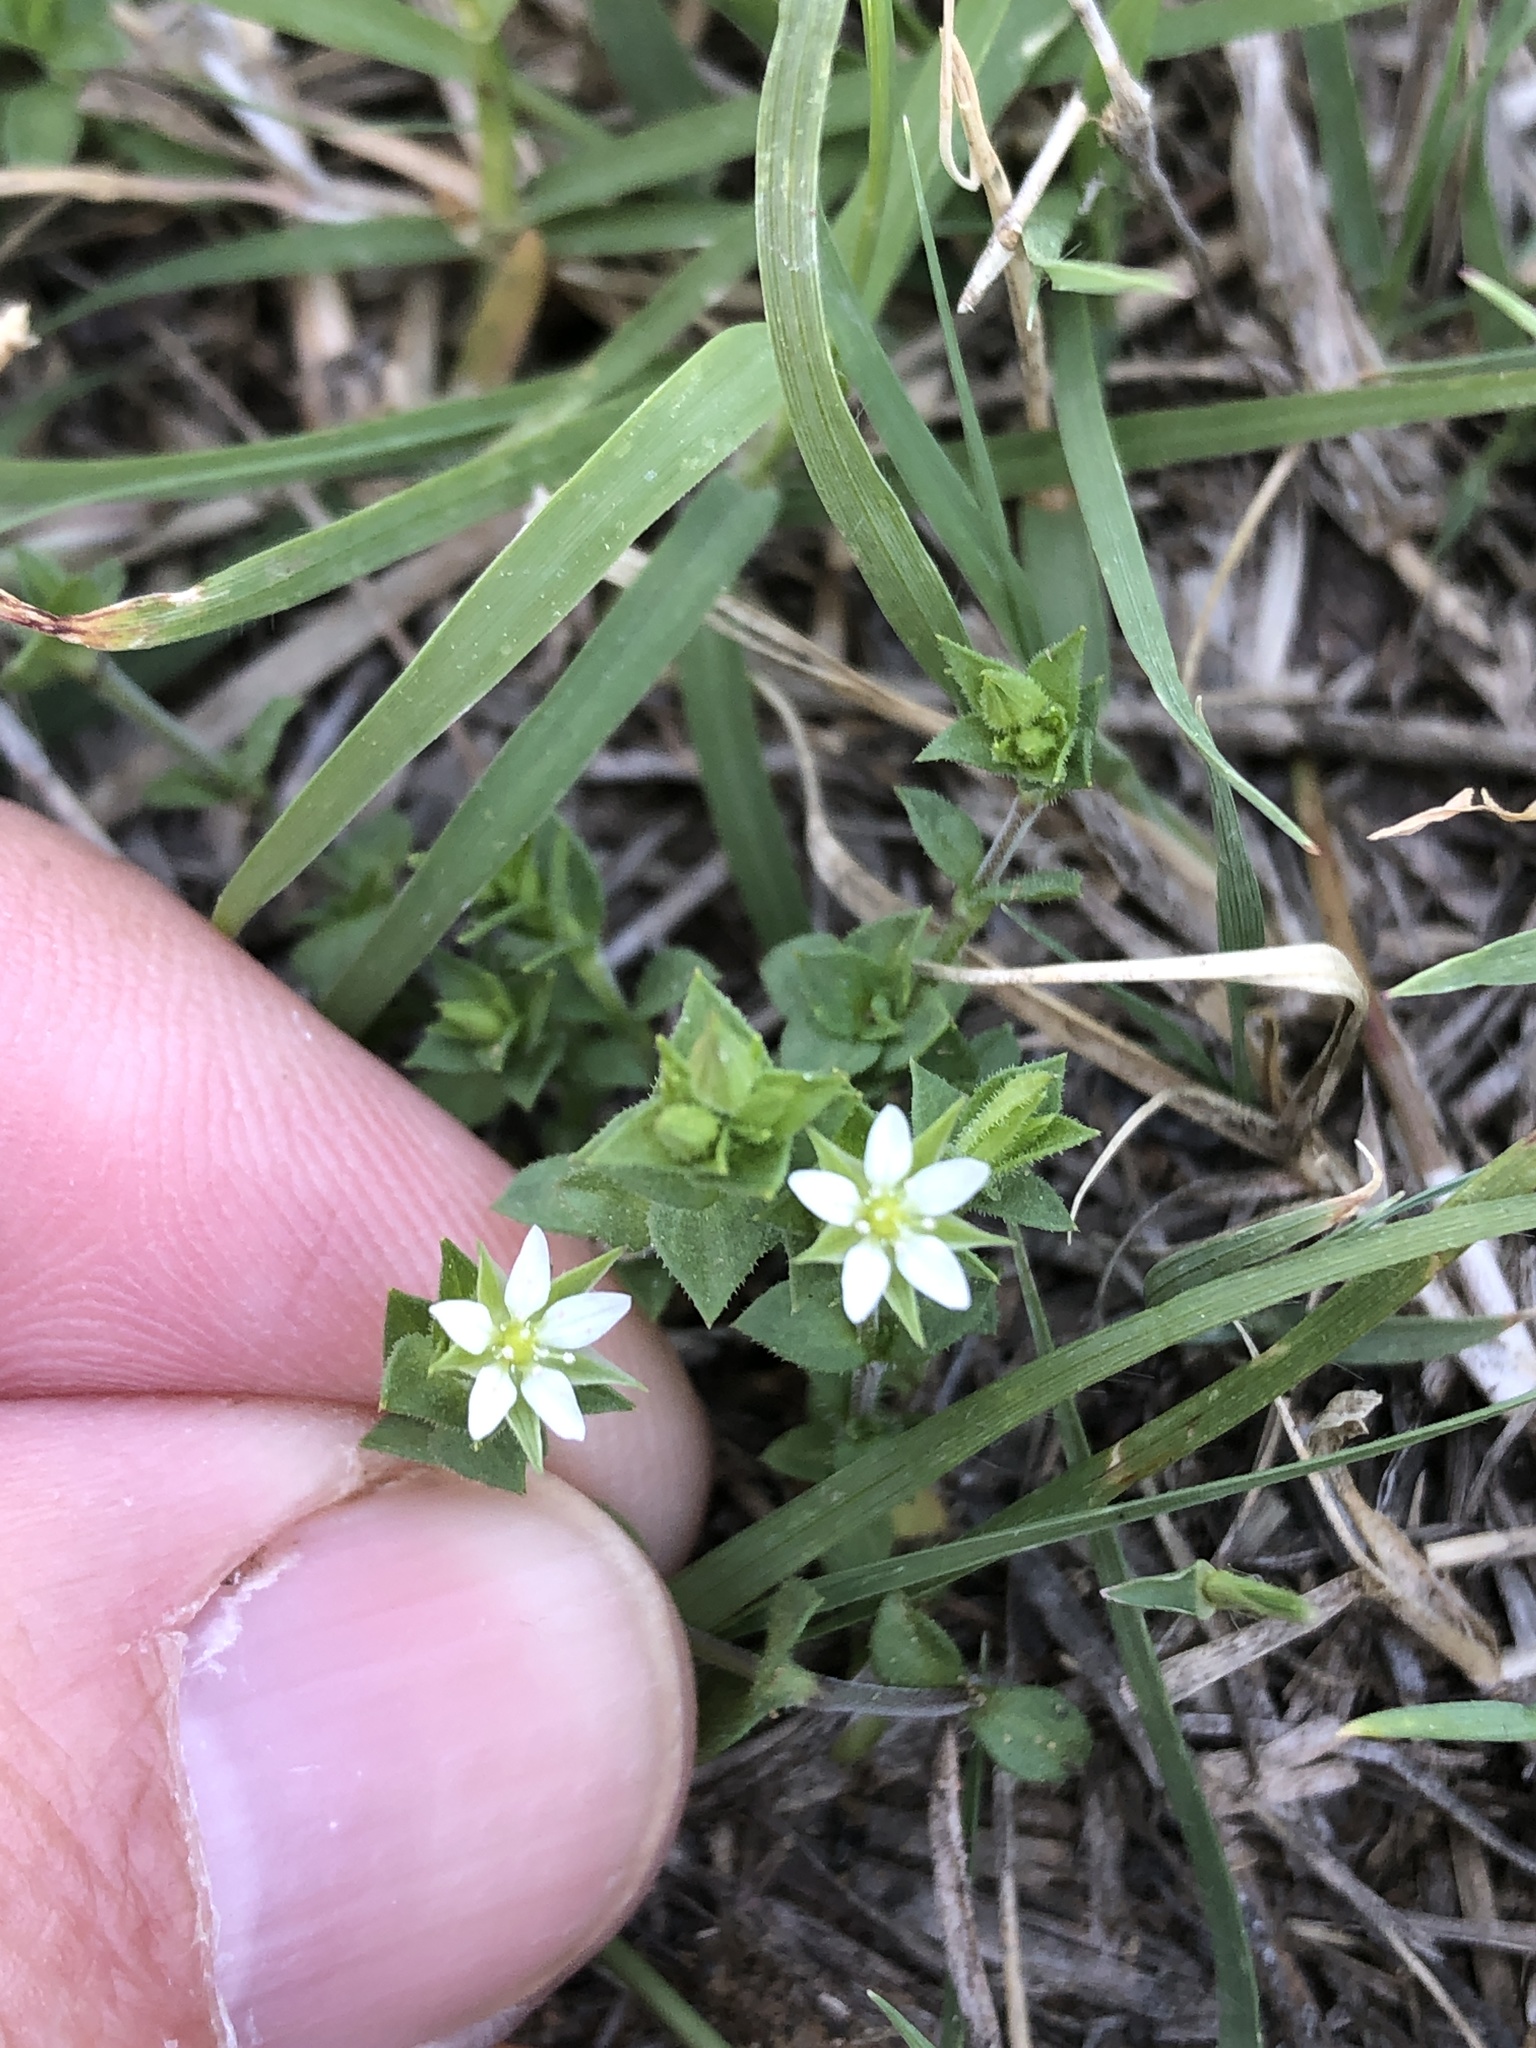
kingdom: Plantae
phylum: Tracheophyta
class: Magnoliopsida
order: Caryophyllales
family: Caryophyllaceae
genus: Arenaria
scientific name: Arenaria serpyllifolia
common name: Thyme-leaved sandwort
